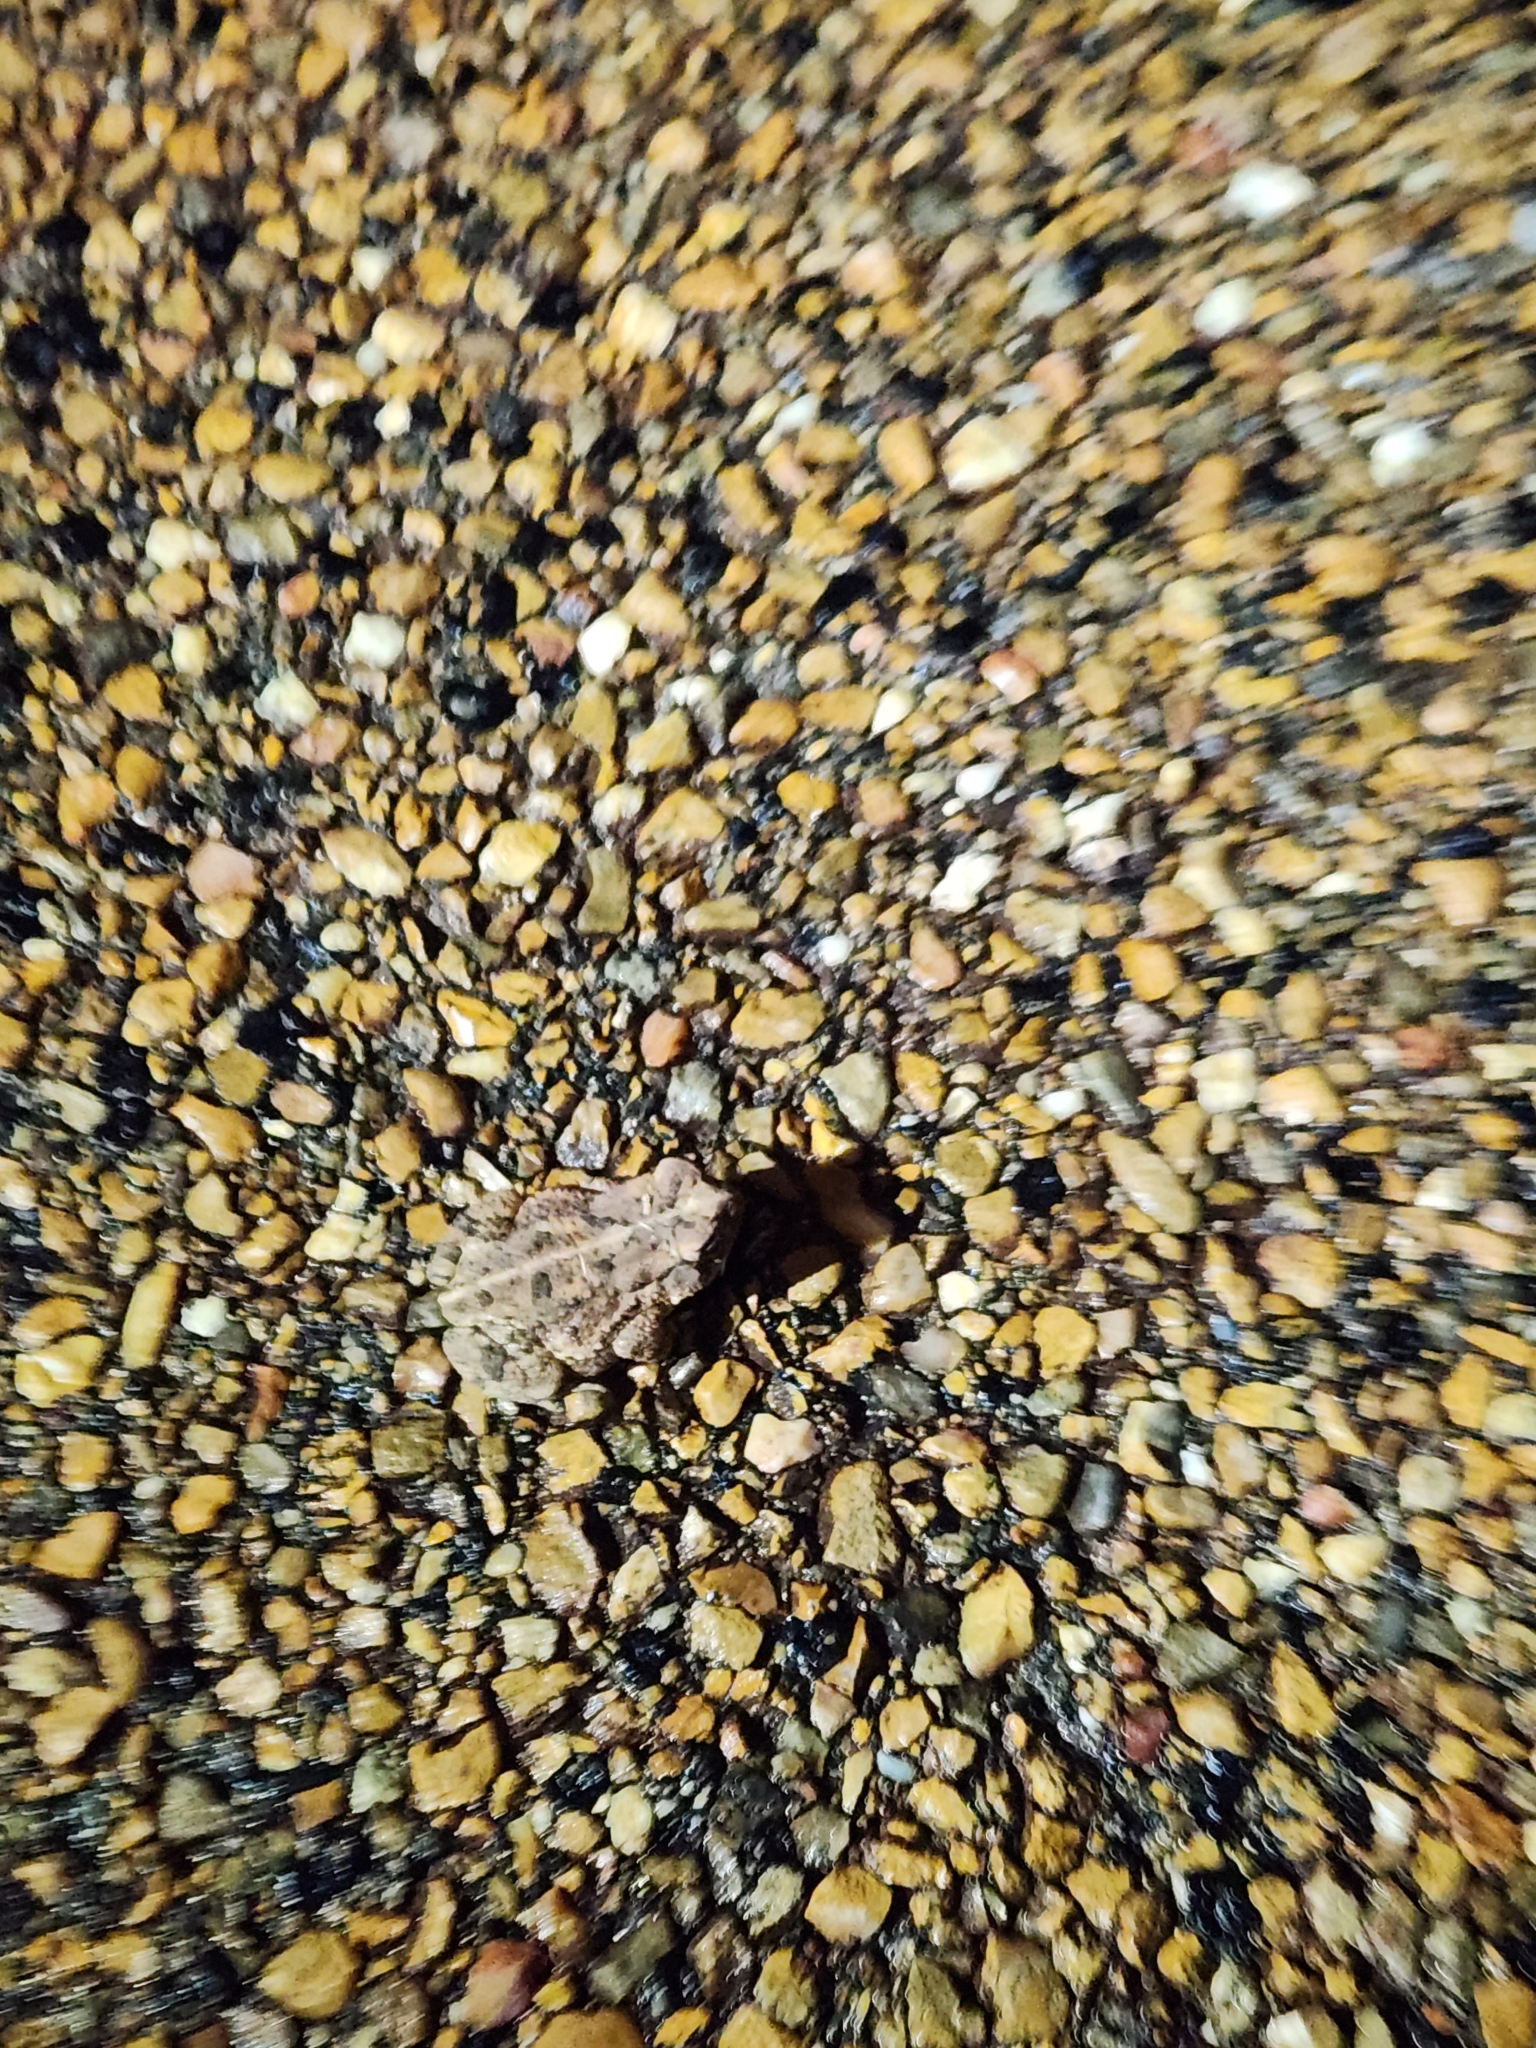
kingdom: Animalia
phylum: Chordata
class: Amphibia
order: Anura
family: Bufonidae
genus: Anaxyrus
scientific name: Anaxyrus fowleri
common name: Fowler's toad
